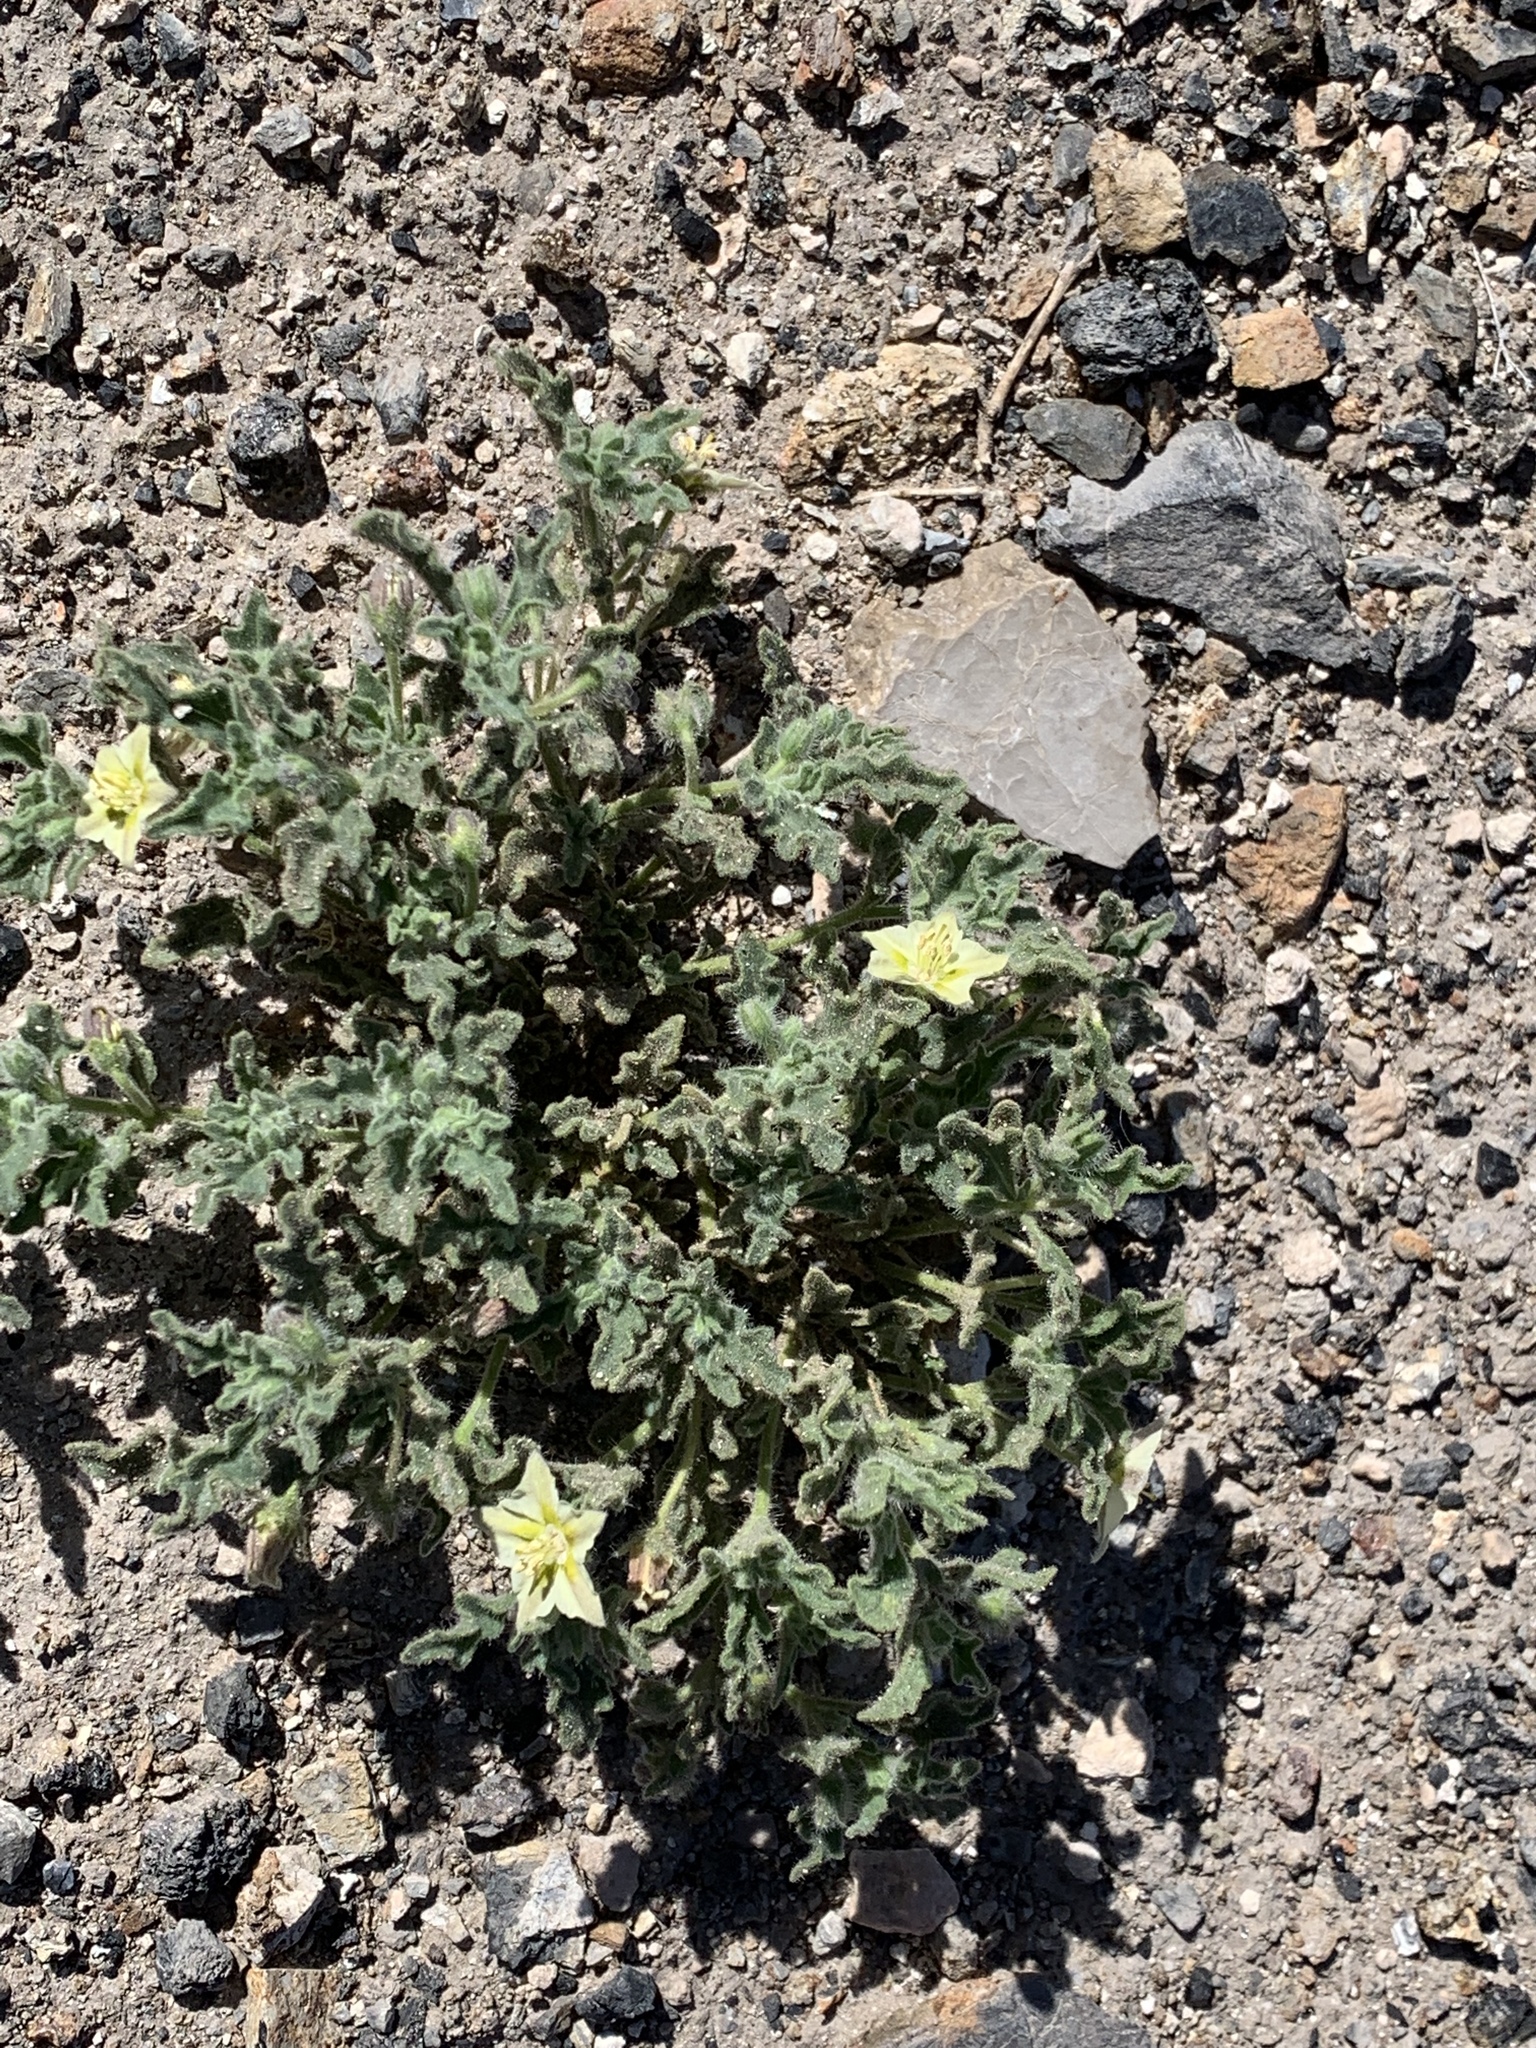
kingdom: Plantae
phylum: Tracheophyta
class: Magnoliopsida
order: Solanales
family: Solanaceae
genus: Chamaesaracha
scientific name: Chamaesaracha sordida
